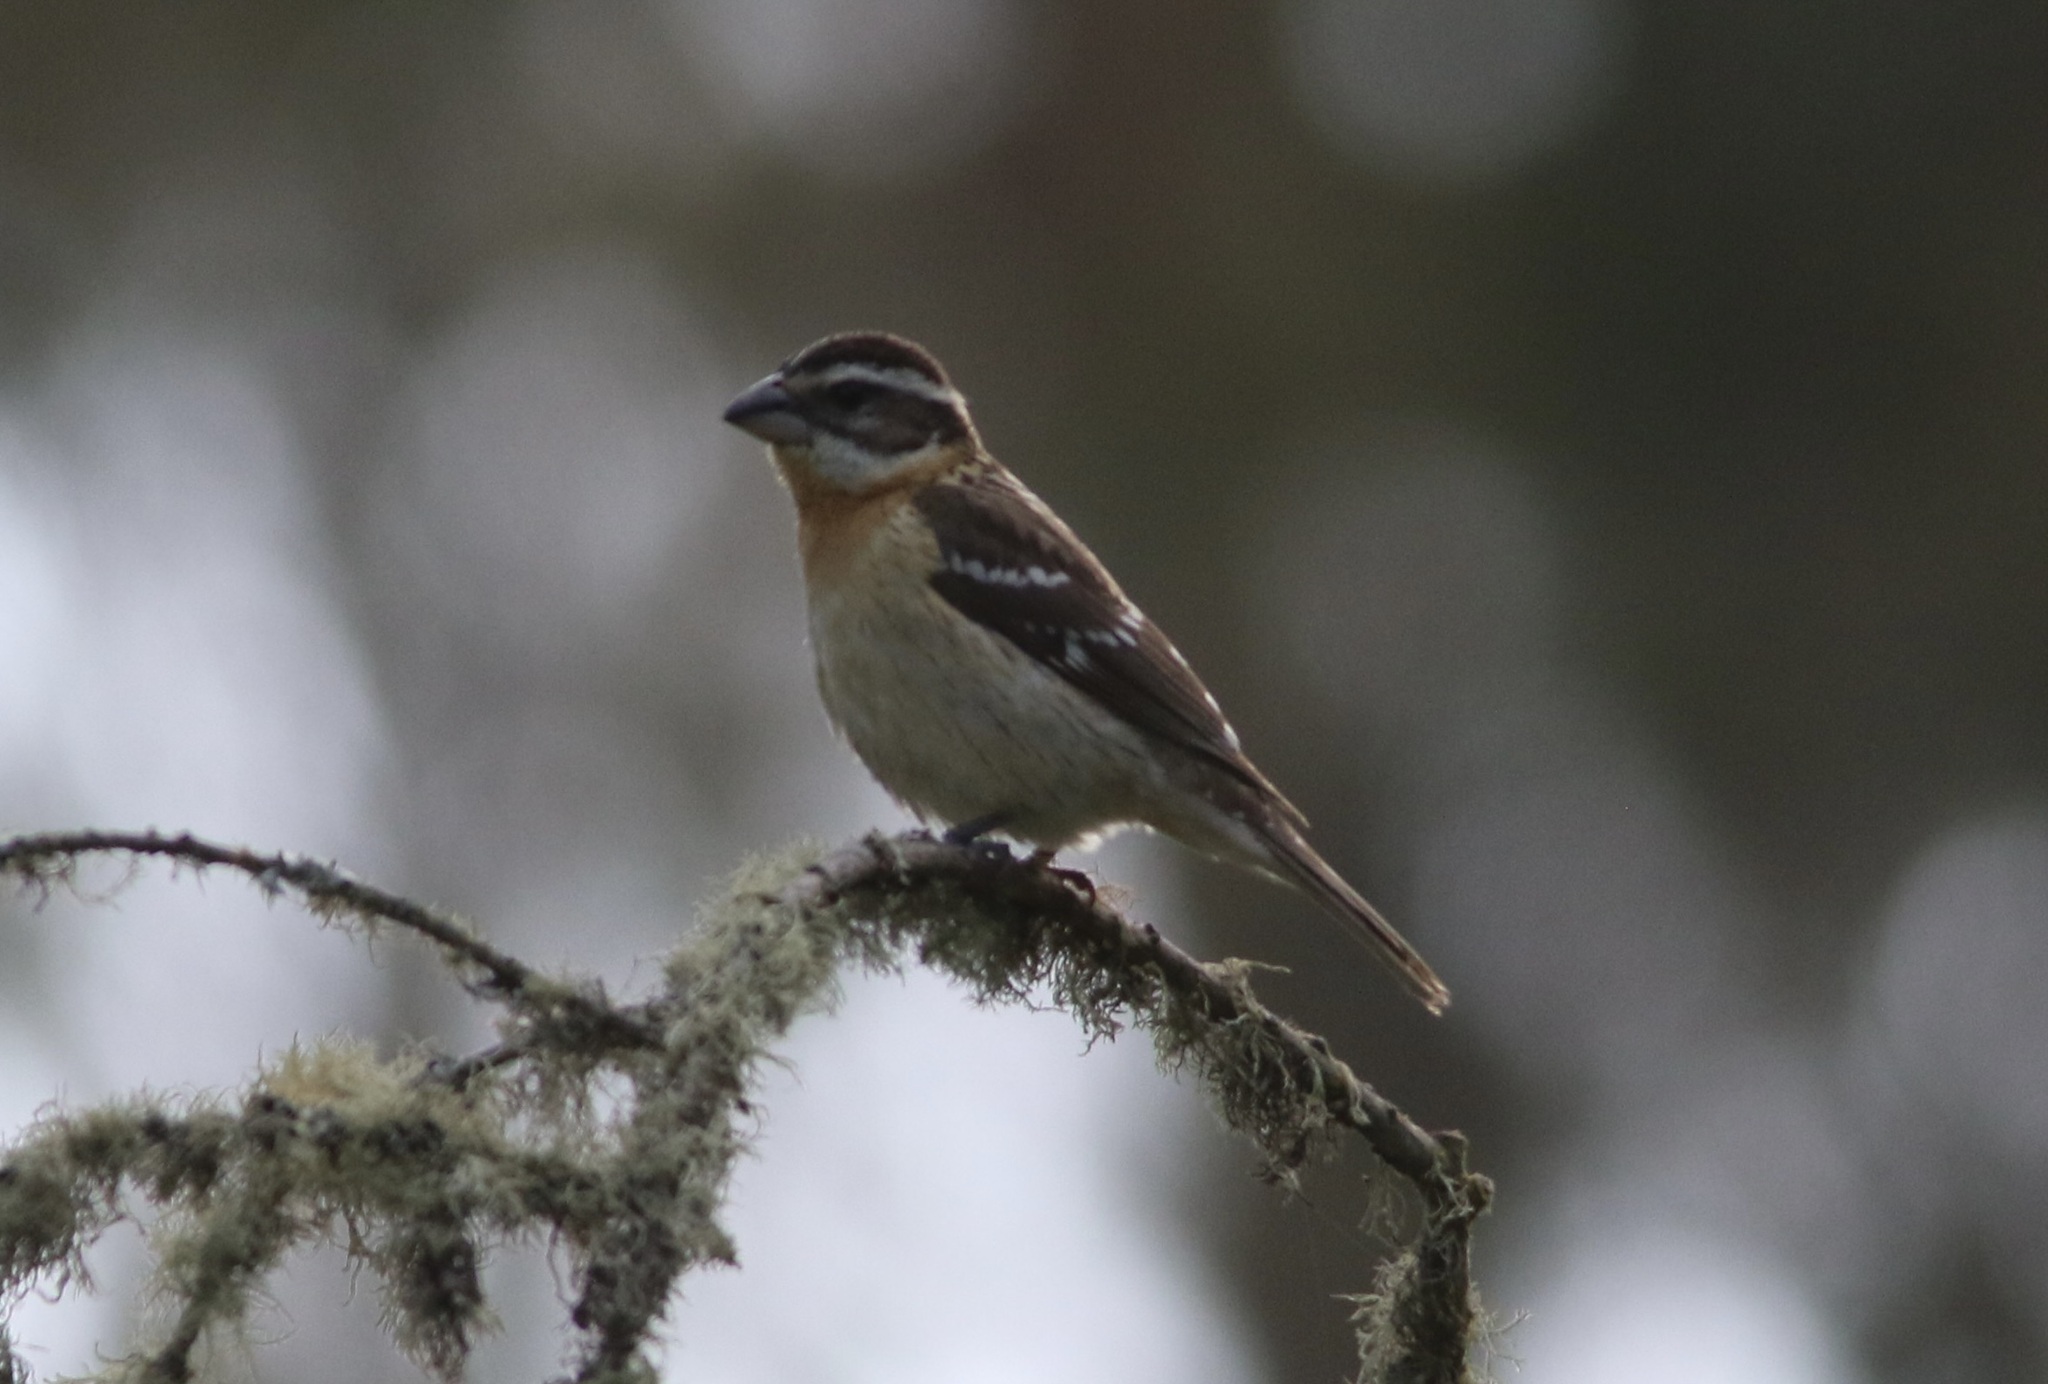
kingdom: Animalia
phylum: Chordata
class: Aves
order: Passeriformes
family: Cardinalidae
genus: Pheucticus
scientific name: Pheucticus melanocephalus
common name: Black-headed grosbeak
